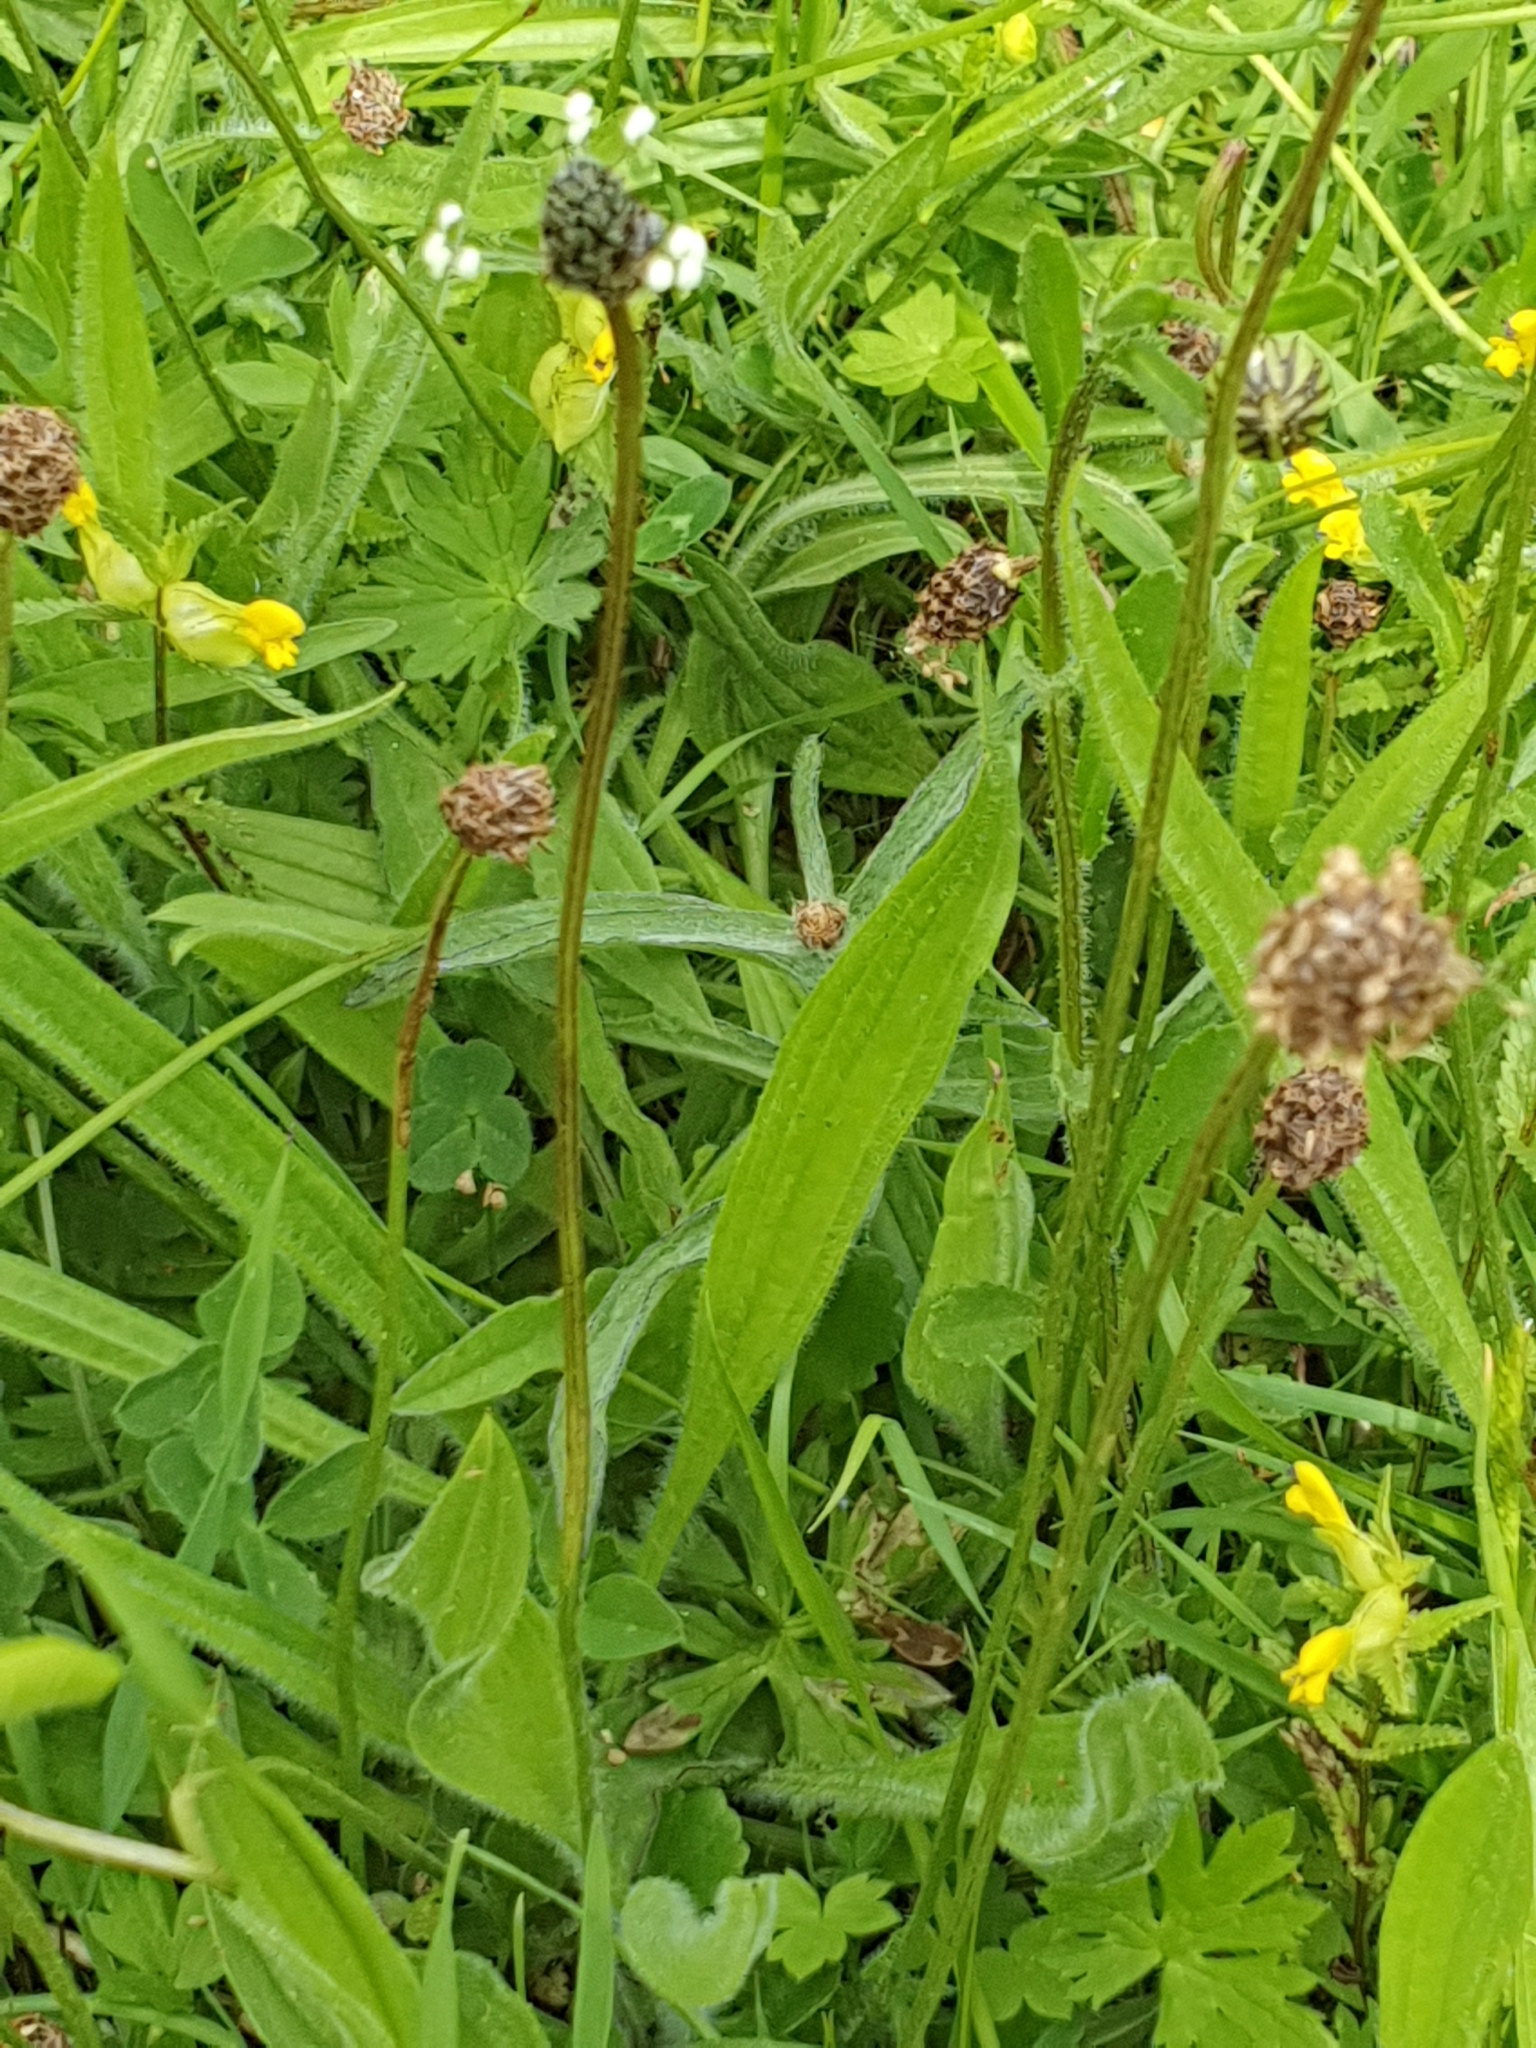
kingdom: Plantae
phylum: Tracheophyta
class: Magnoliopsida
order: Lamiales
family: Plantaginaceae
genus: Plantago
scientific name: Plantago lanceolata
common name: Ribwort plantain
